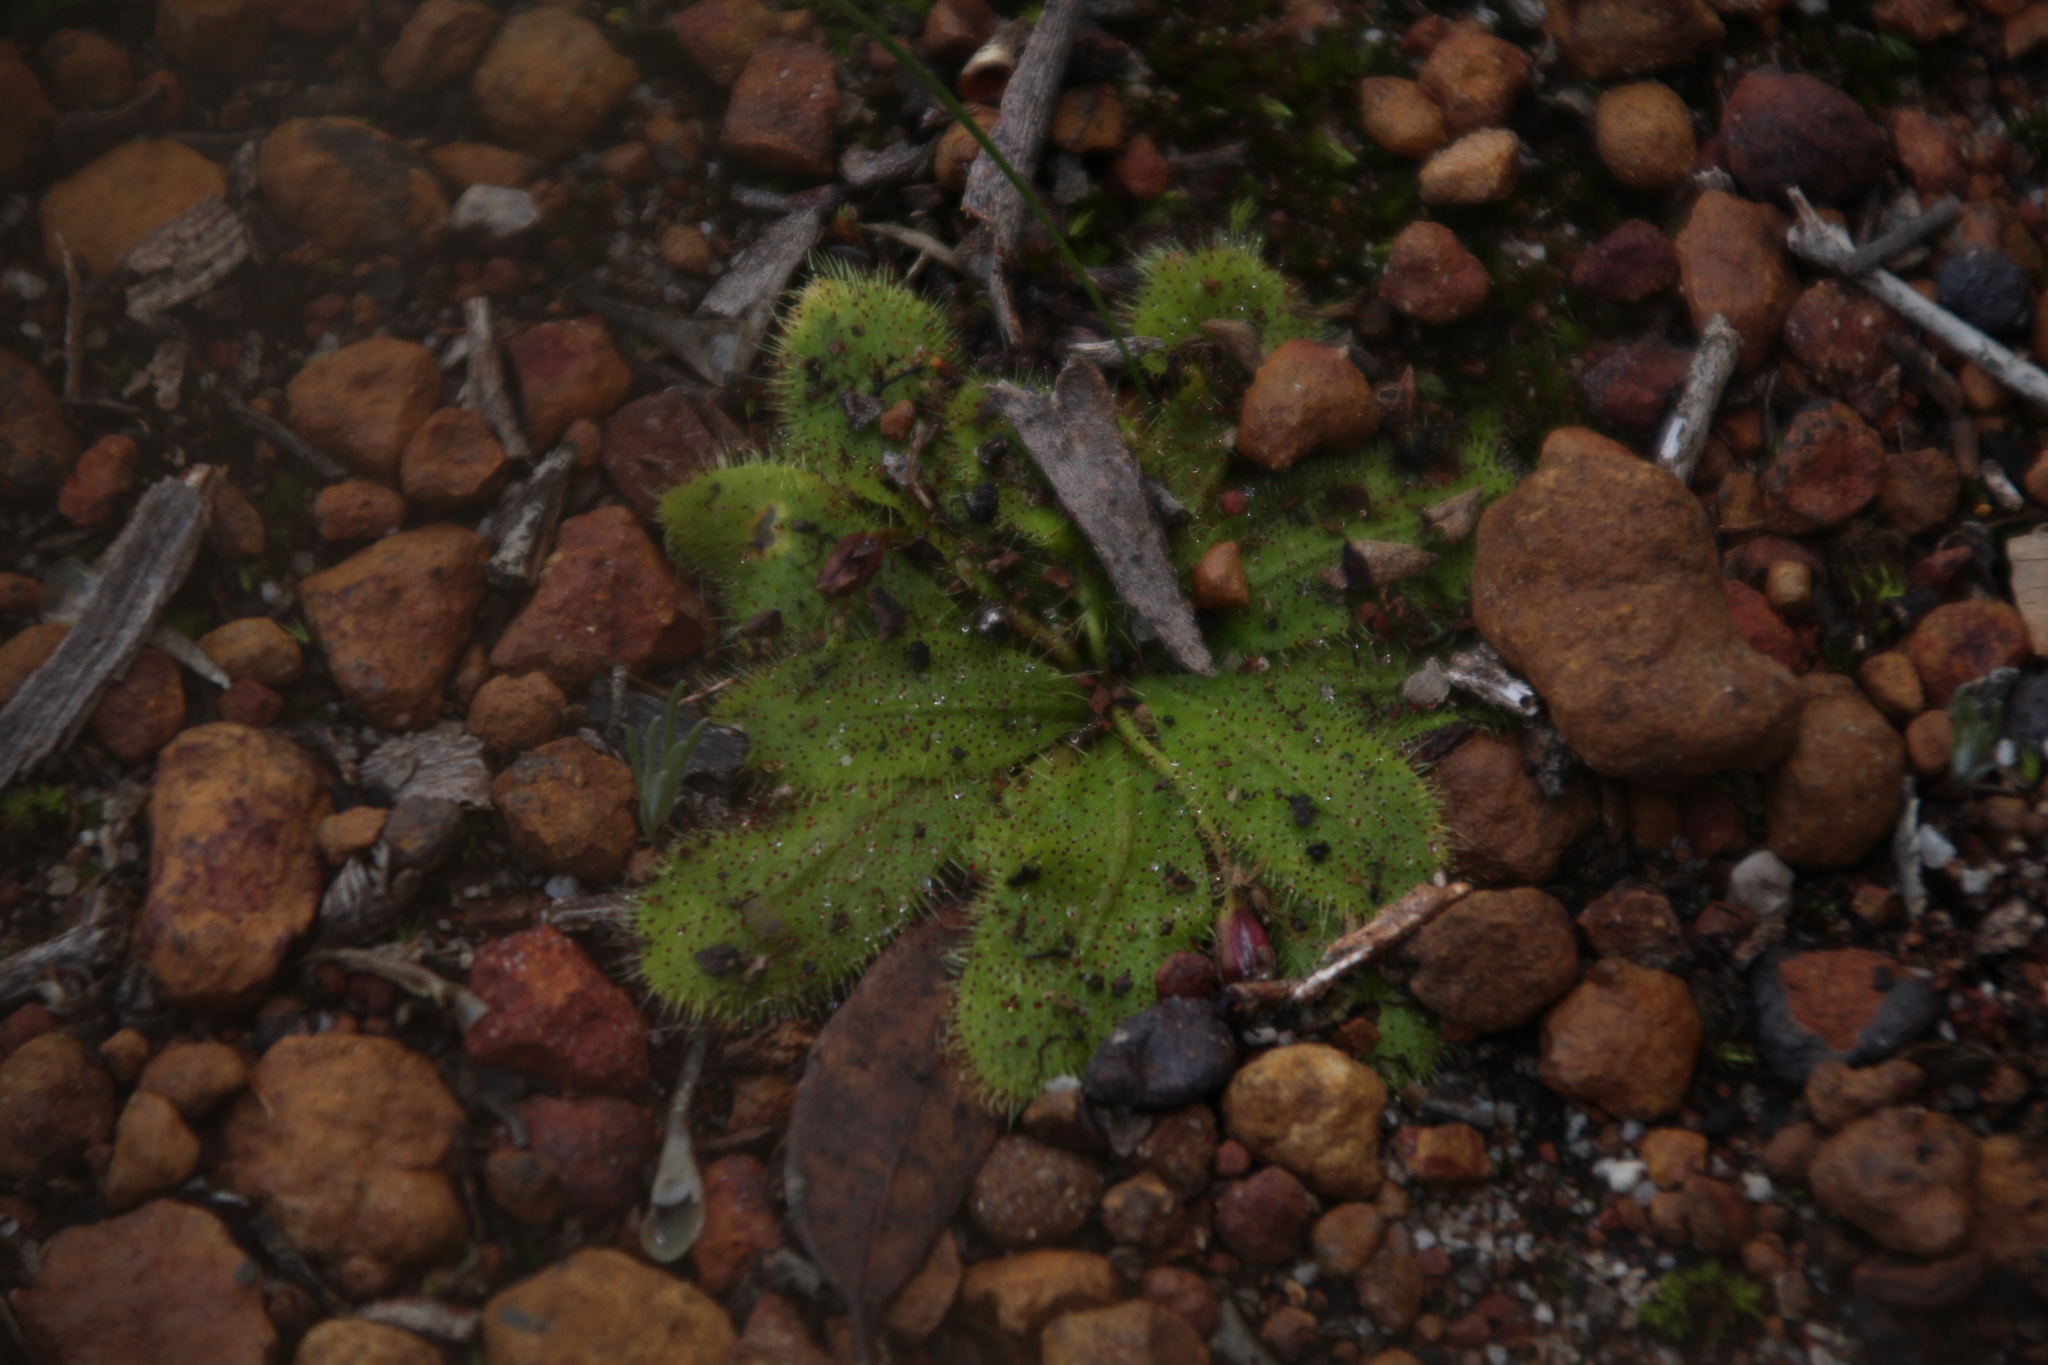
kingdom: Plantae
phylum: Tracheophyta
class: Magnoliopsida
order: Caryophyllales
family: Droseraceae
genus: Drosera
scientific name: Drosera bulbosa
